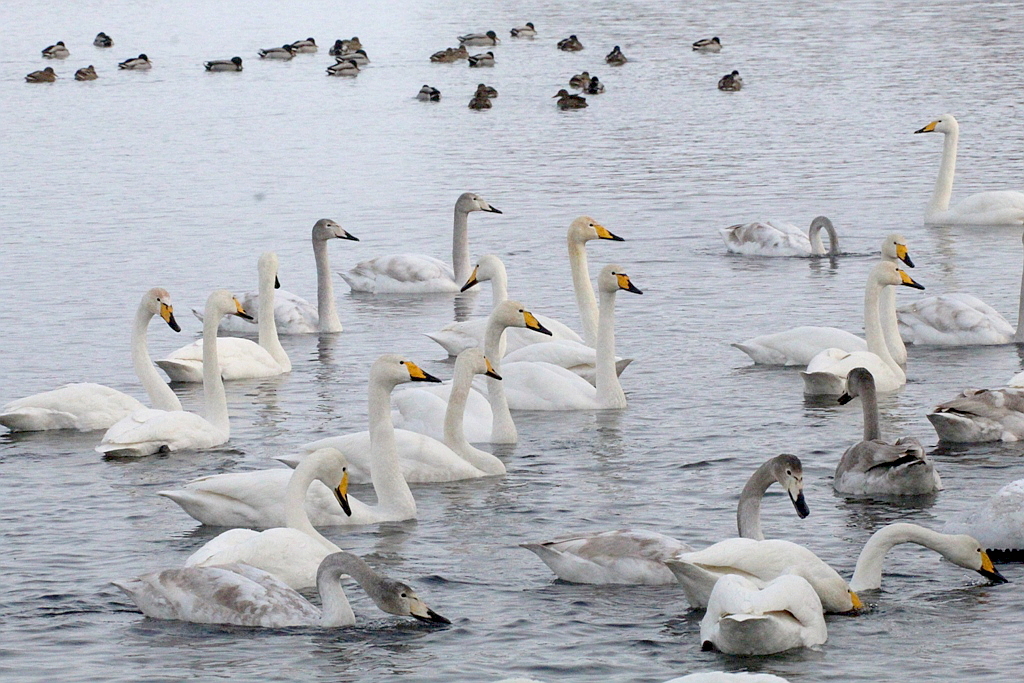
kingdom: Animalia
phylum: Chordata
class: Aves
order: Anseriformes
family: Anatidae
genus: Cygnus
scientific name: Cygnus cygnus
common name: Whooper swan
